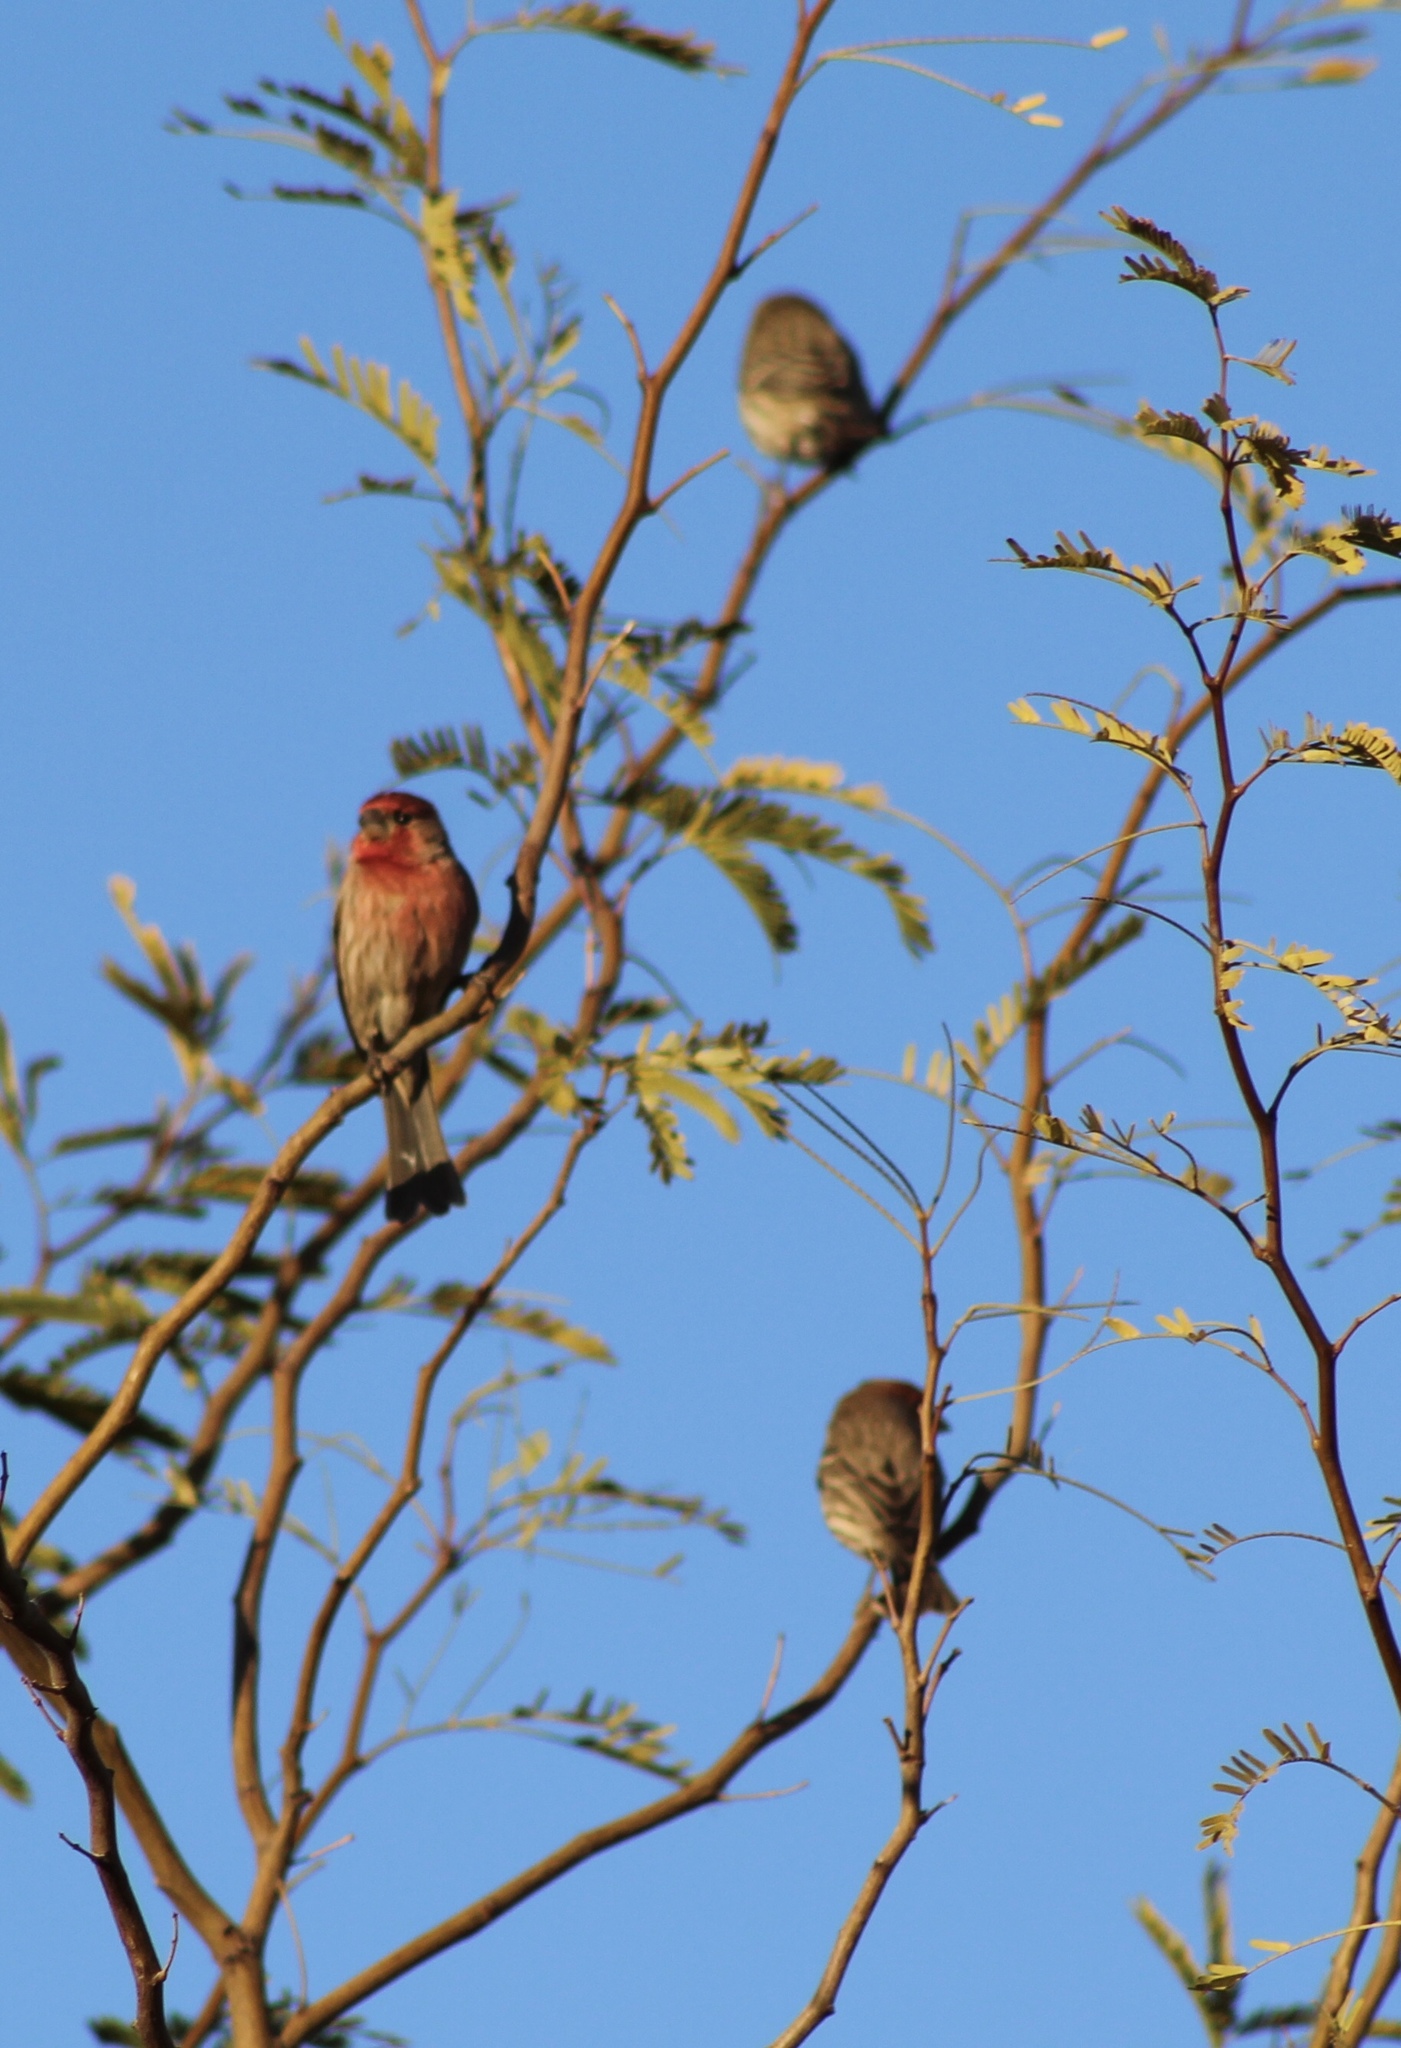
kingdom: Animalia
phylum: Chordata
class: Aves
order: Passeriformes
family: Fringillidae
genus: Haemorhous
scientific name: Haemorhous mexicanus
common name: House finch
